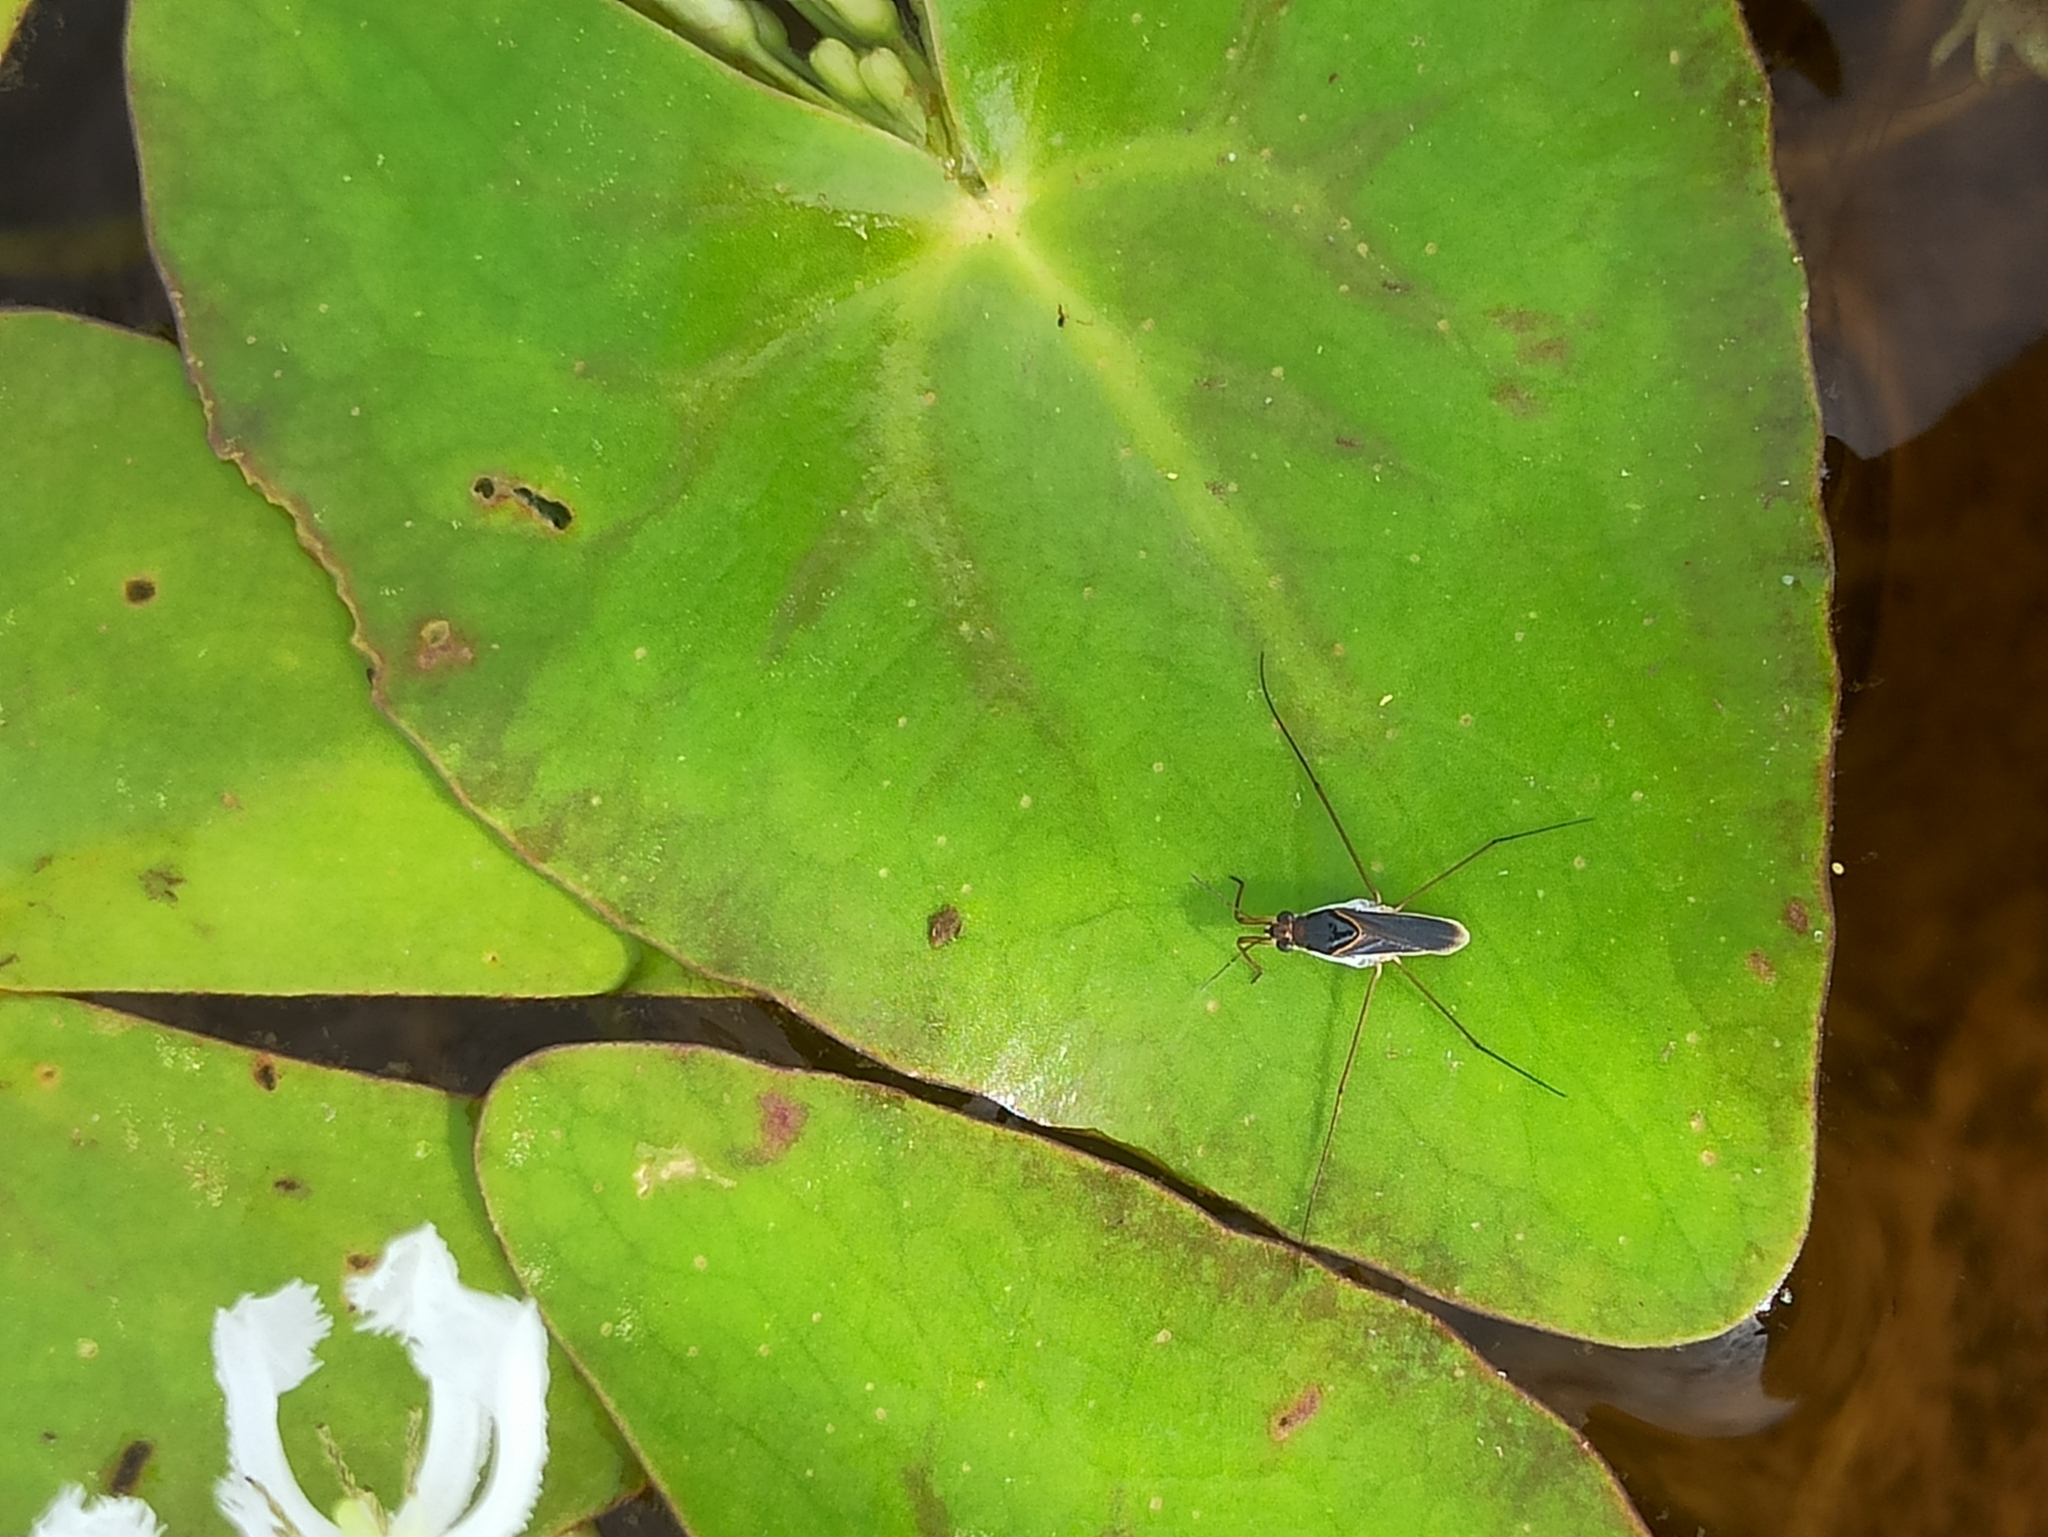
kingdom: Animalia
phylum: Arthropoda
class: Insecta
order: Hemiptera
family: Gerridae
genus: Neogerris
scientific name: Neogerris parvulus
